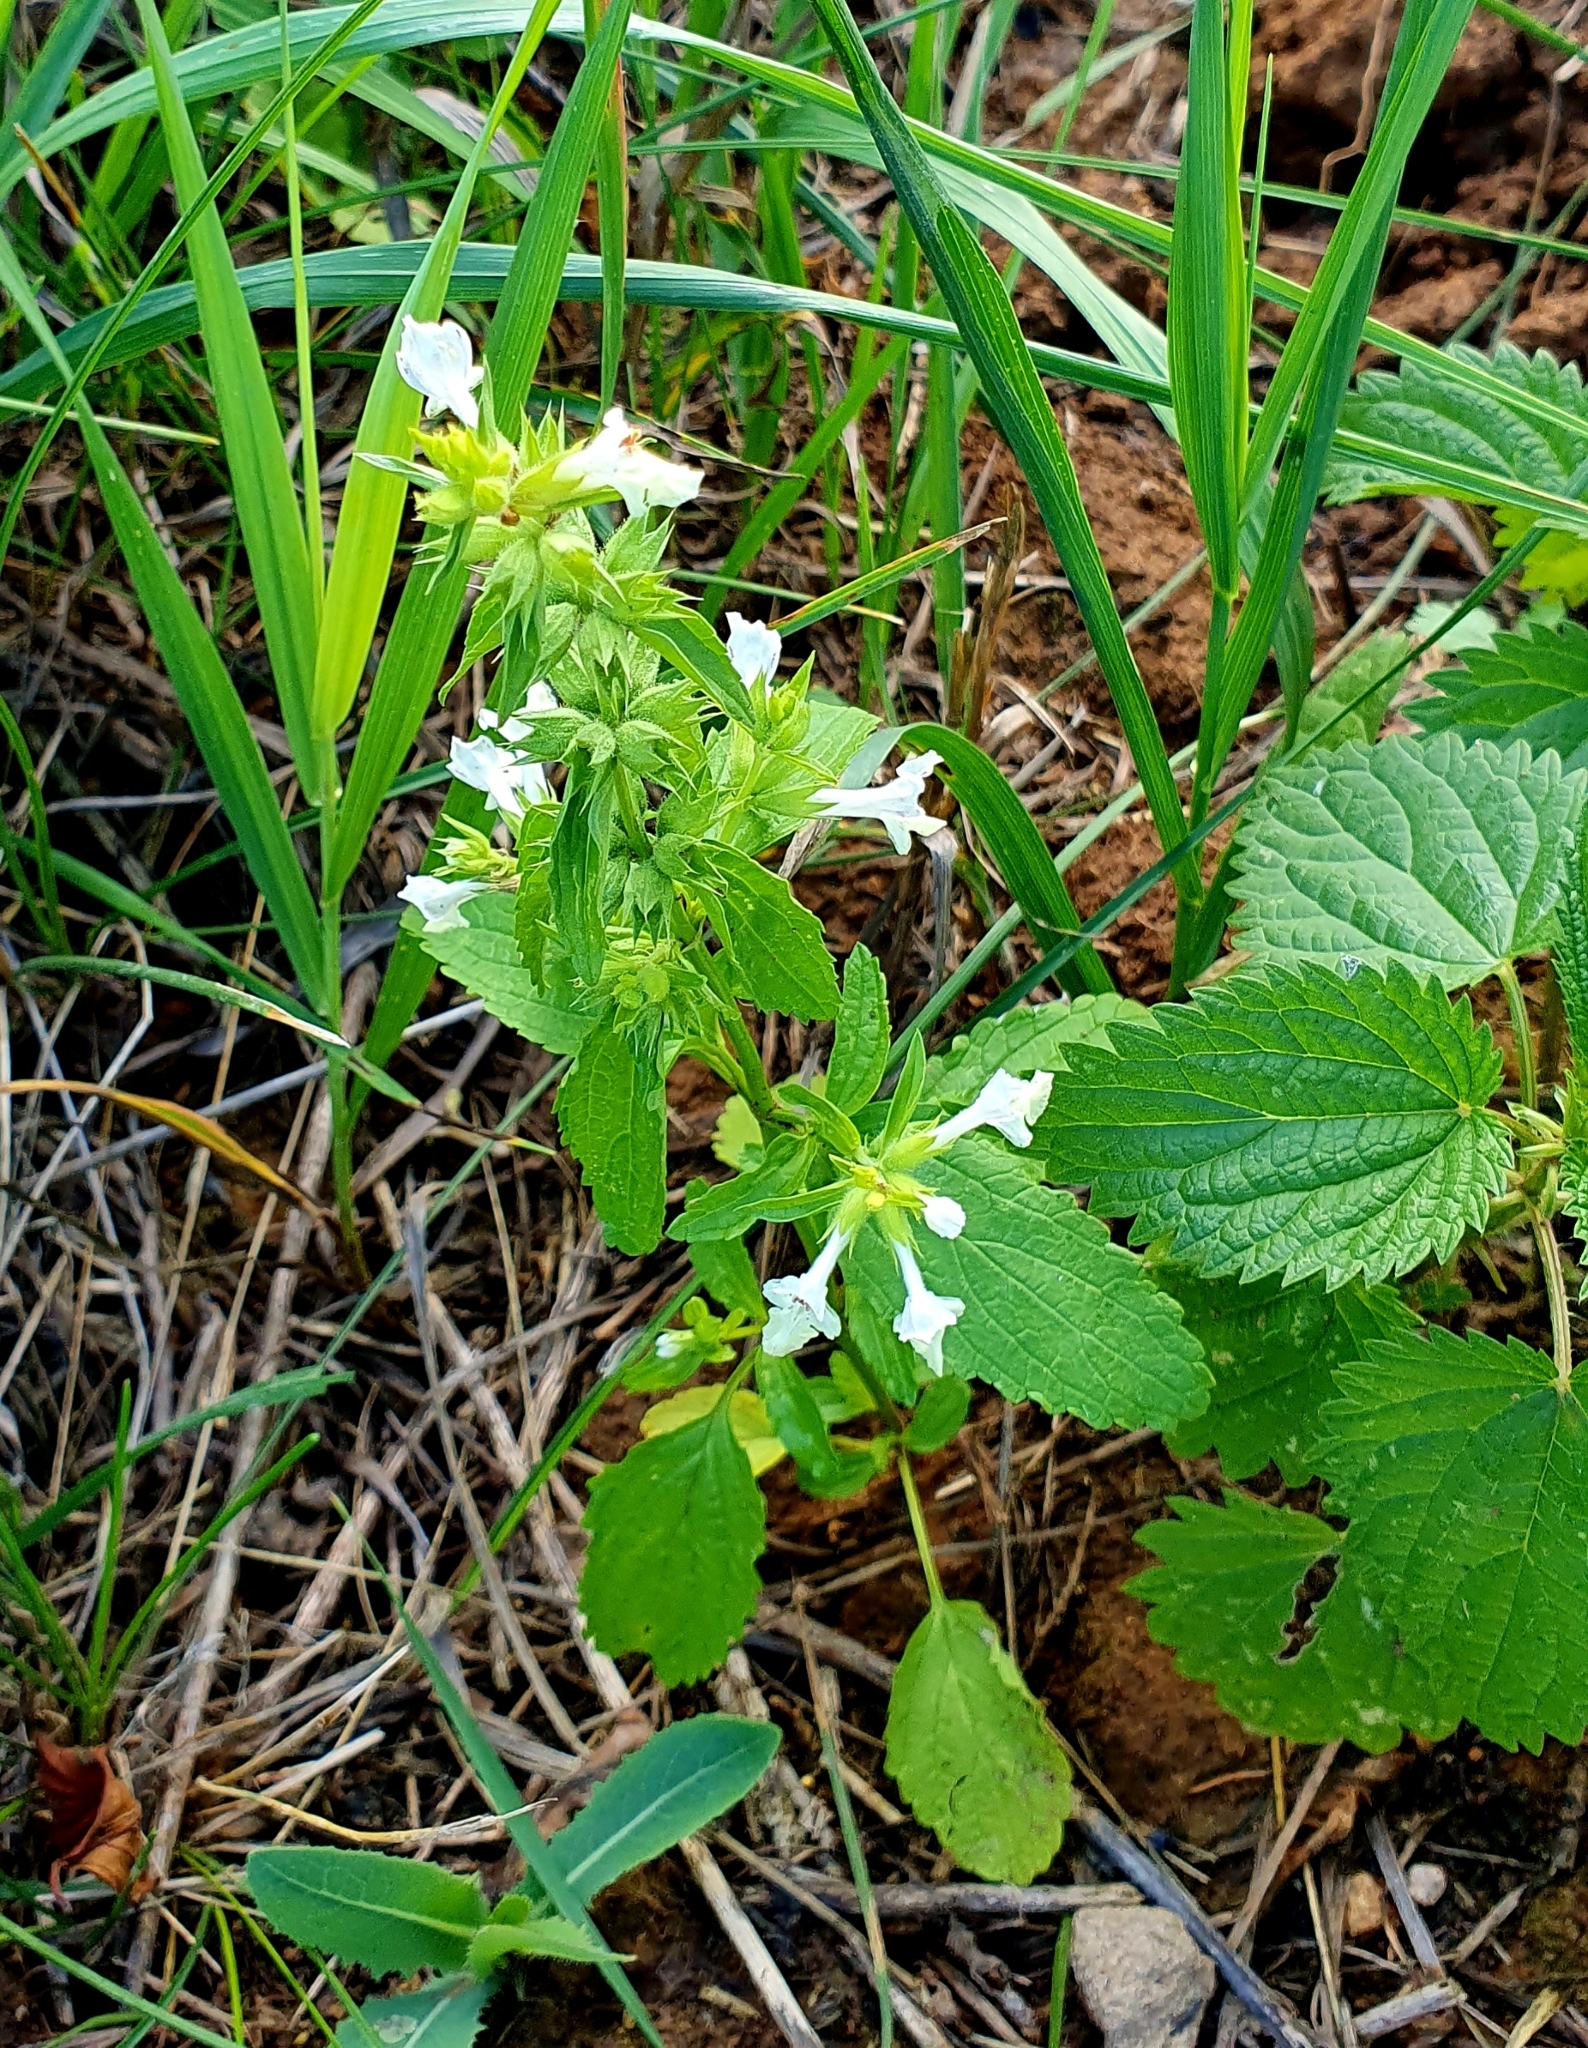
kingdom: Plantae
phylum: Tracheophyta
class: Magnoliopsida
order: Lamiales
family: Lamiaceae
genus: Stachys
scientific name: Stachys annua
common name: Annual yellow-woundwort
